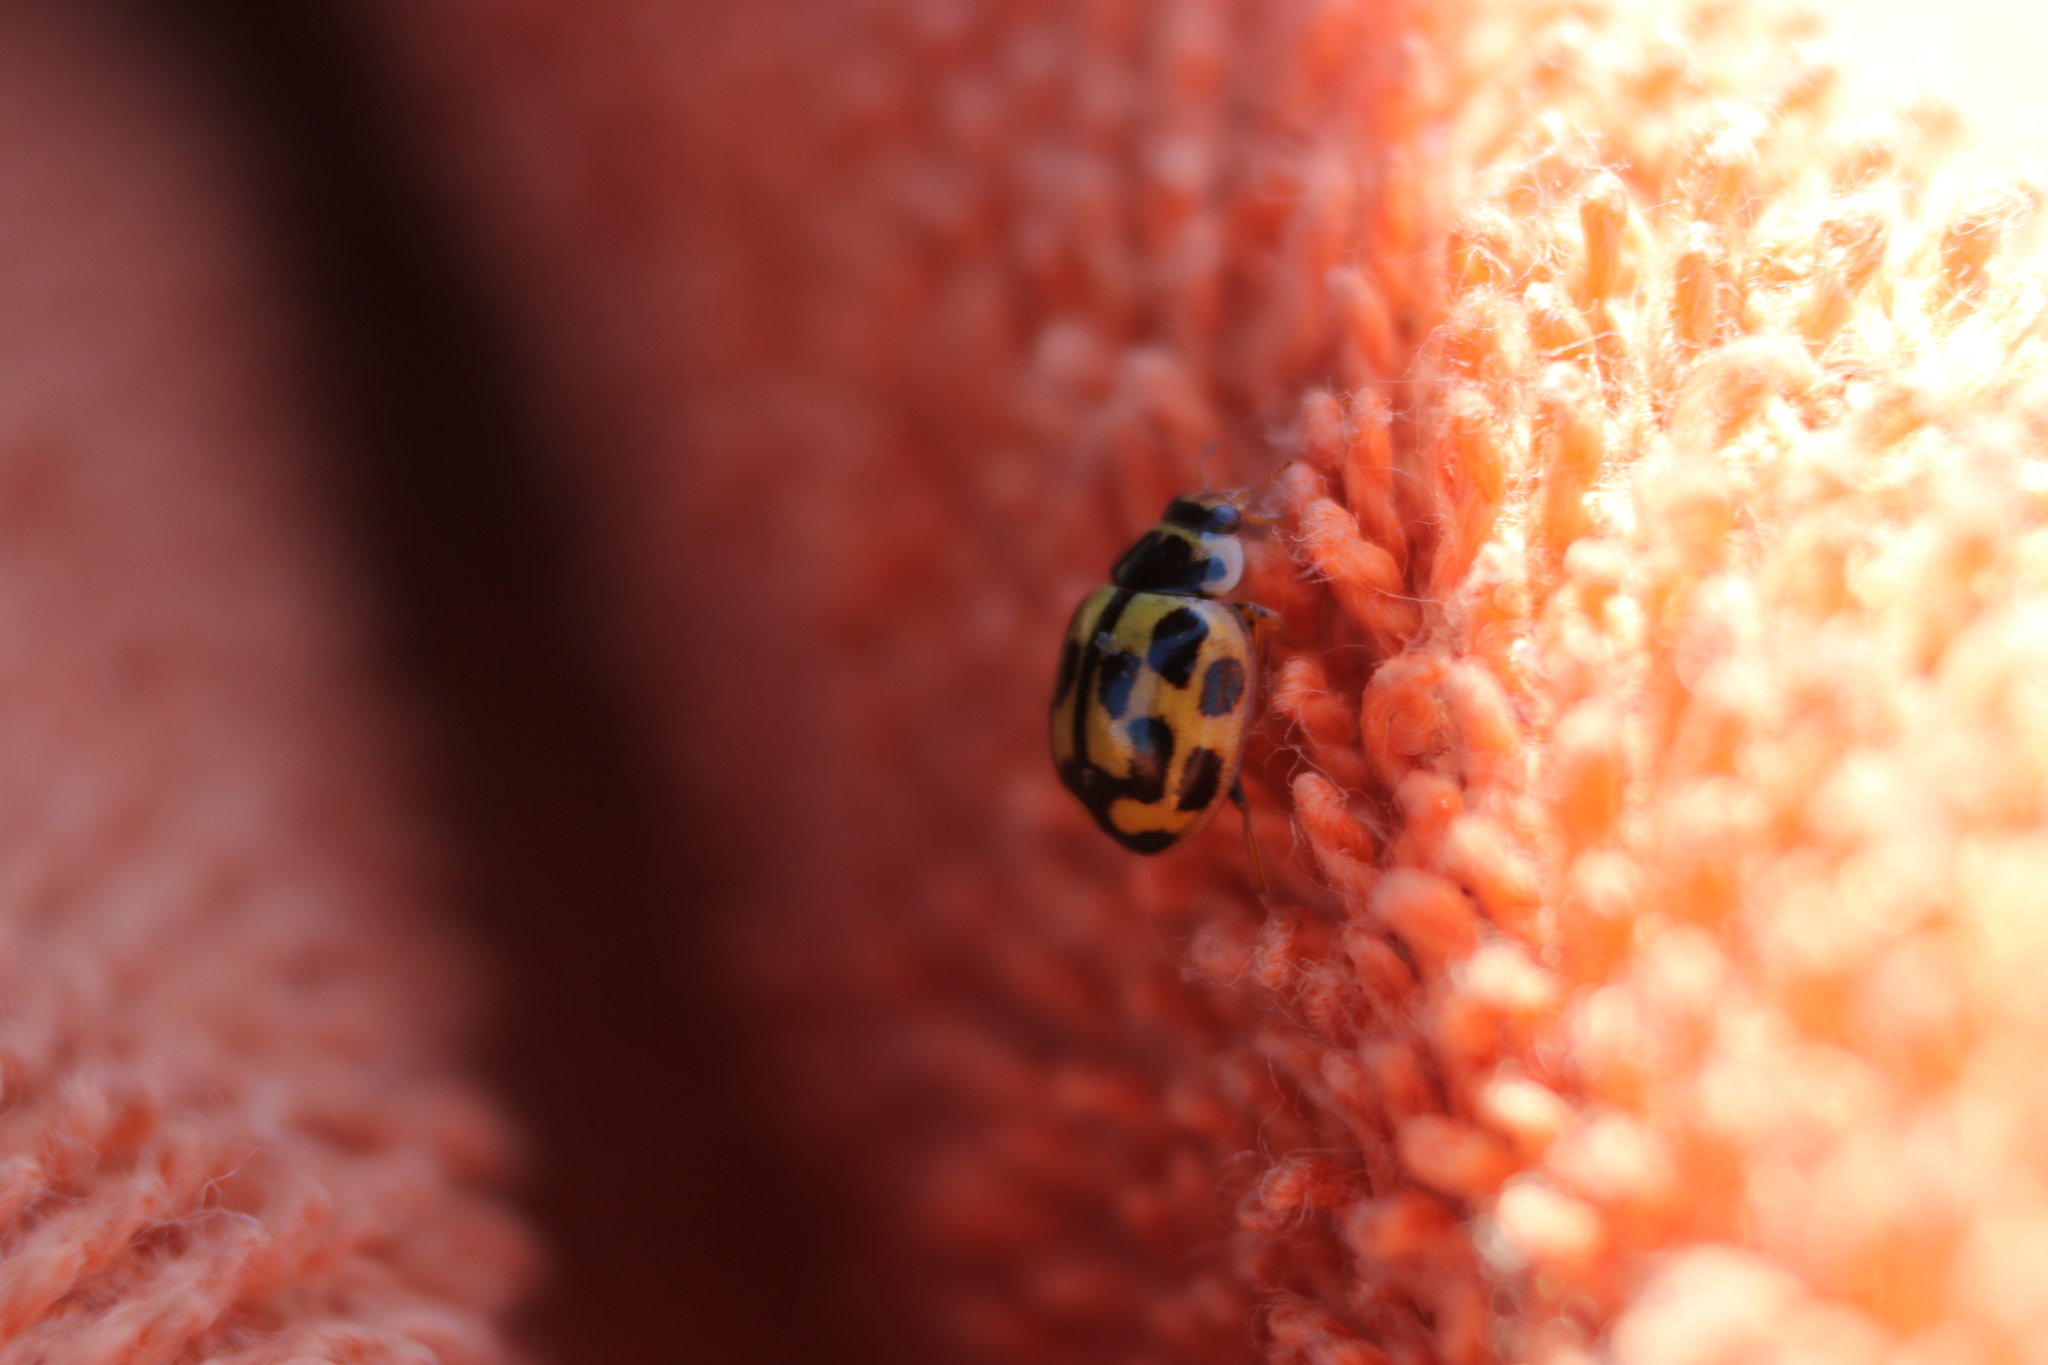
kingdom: Animalia
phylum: Arthropoda
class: Insecta
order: Coleoptera
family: Coccinellidae
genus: Propylaea
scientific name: Propylaea quatuordecimpunctata
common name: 14-spotted ladybird beetle
